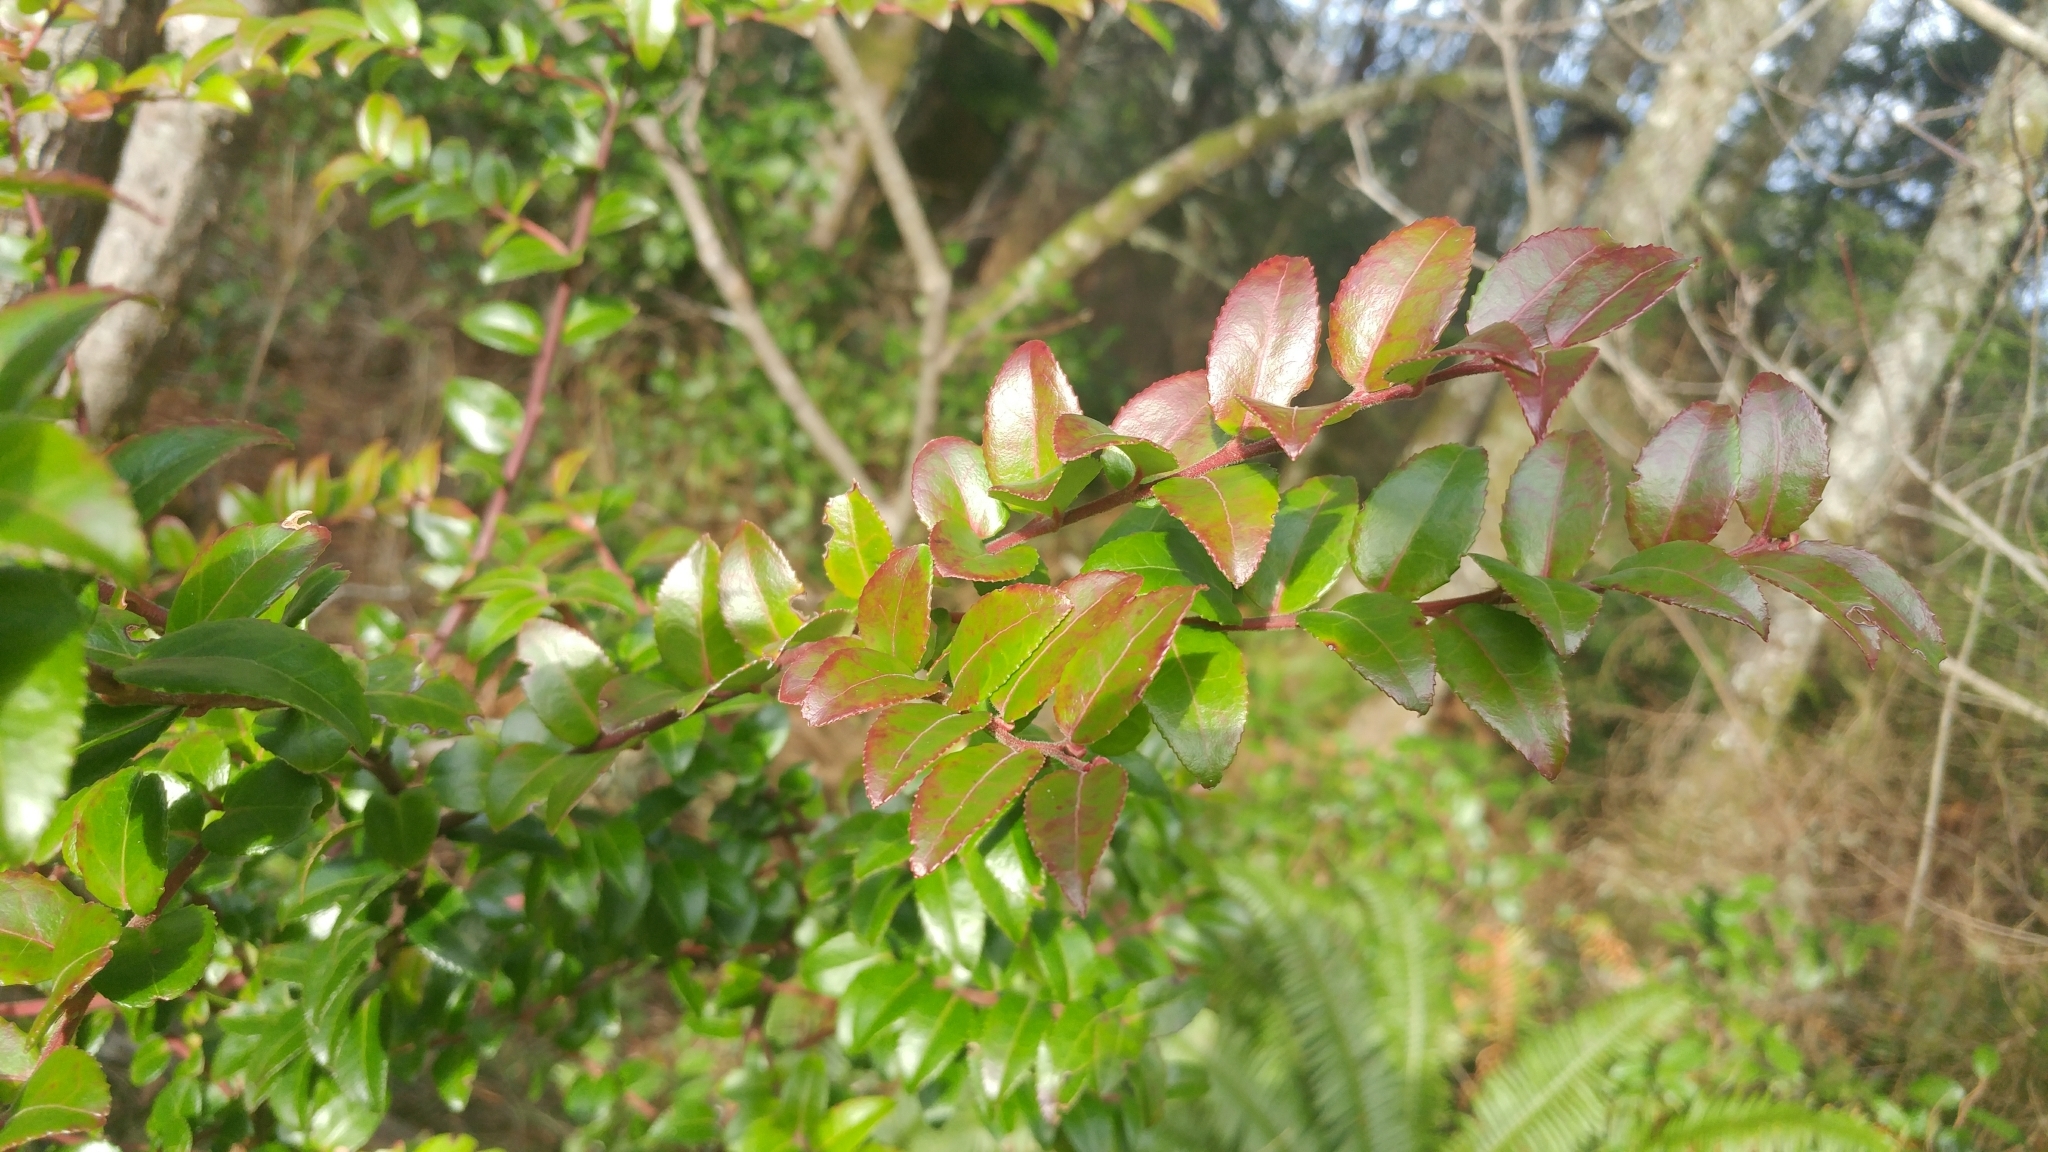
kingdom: Plantae
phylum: Tracheophyta
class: Magnoliopsida
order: Ericales
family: Ericaceae
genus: Vaccinium
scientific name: Vaccinium ovatum
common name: California-huckleberry
